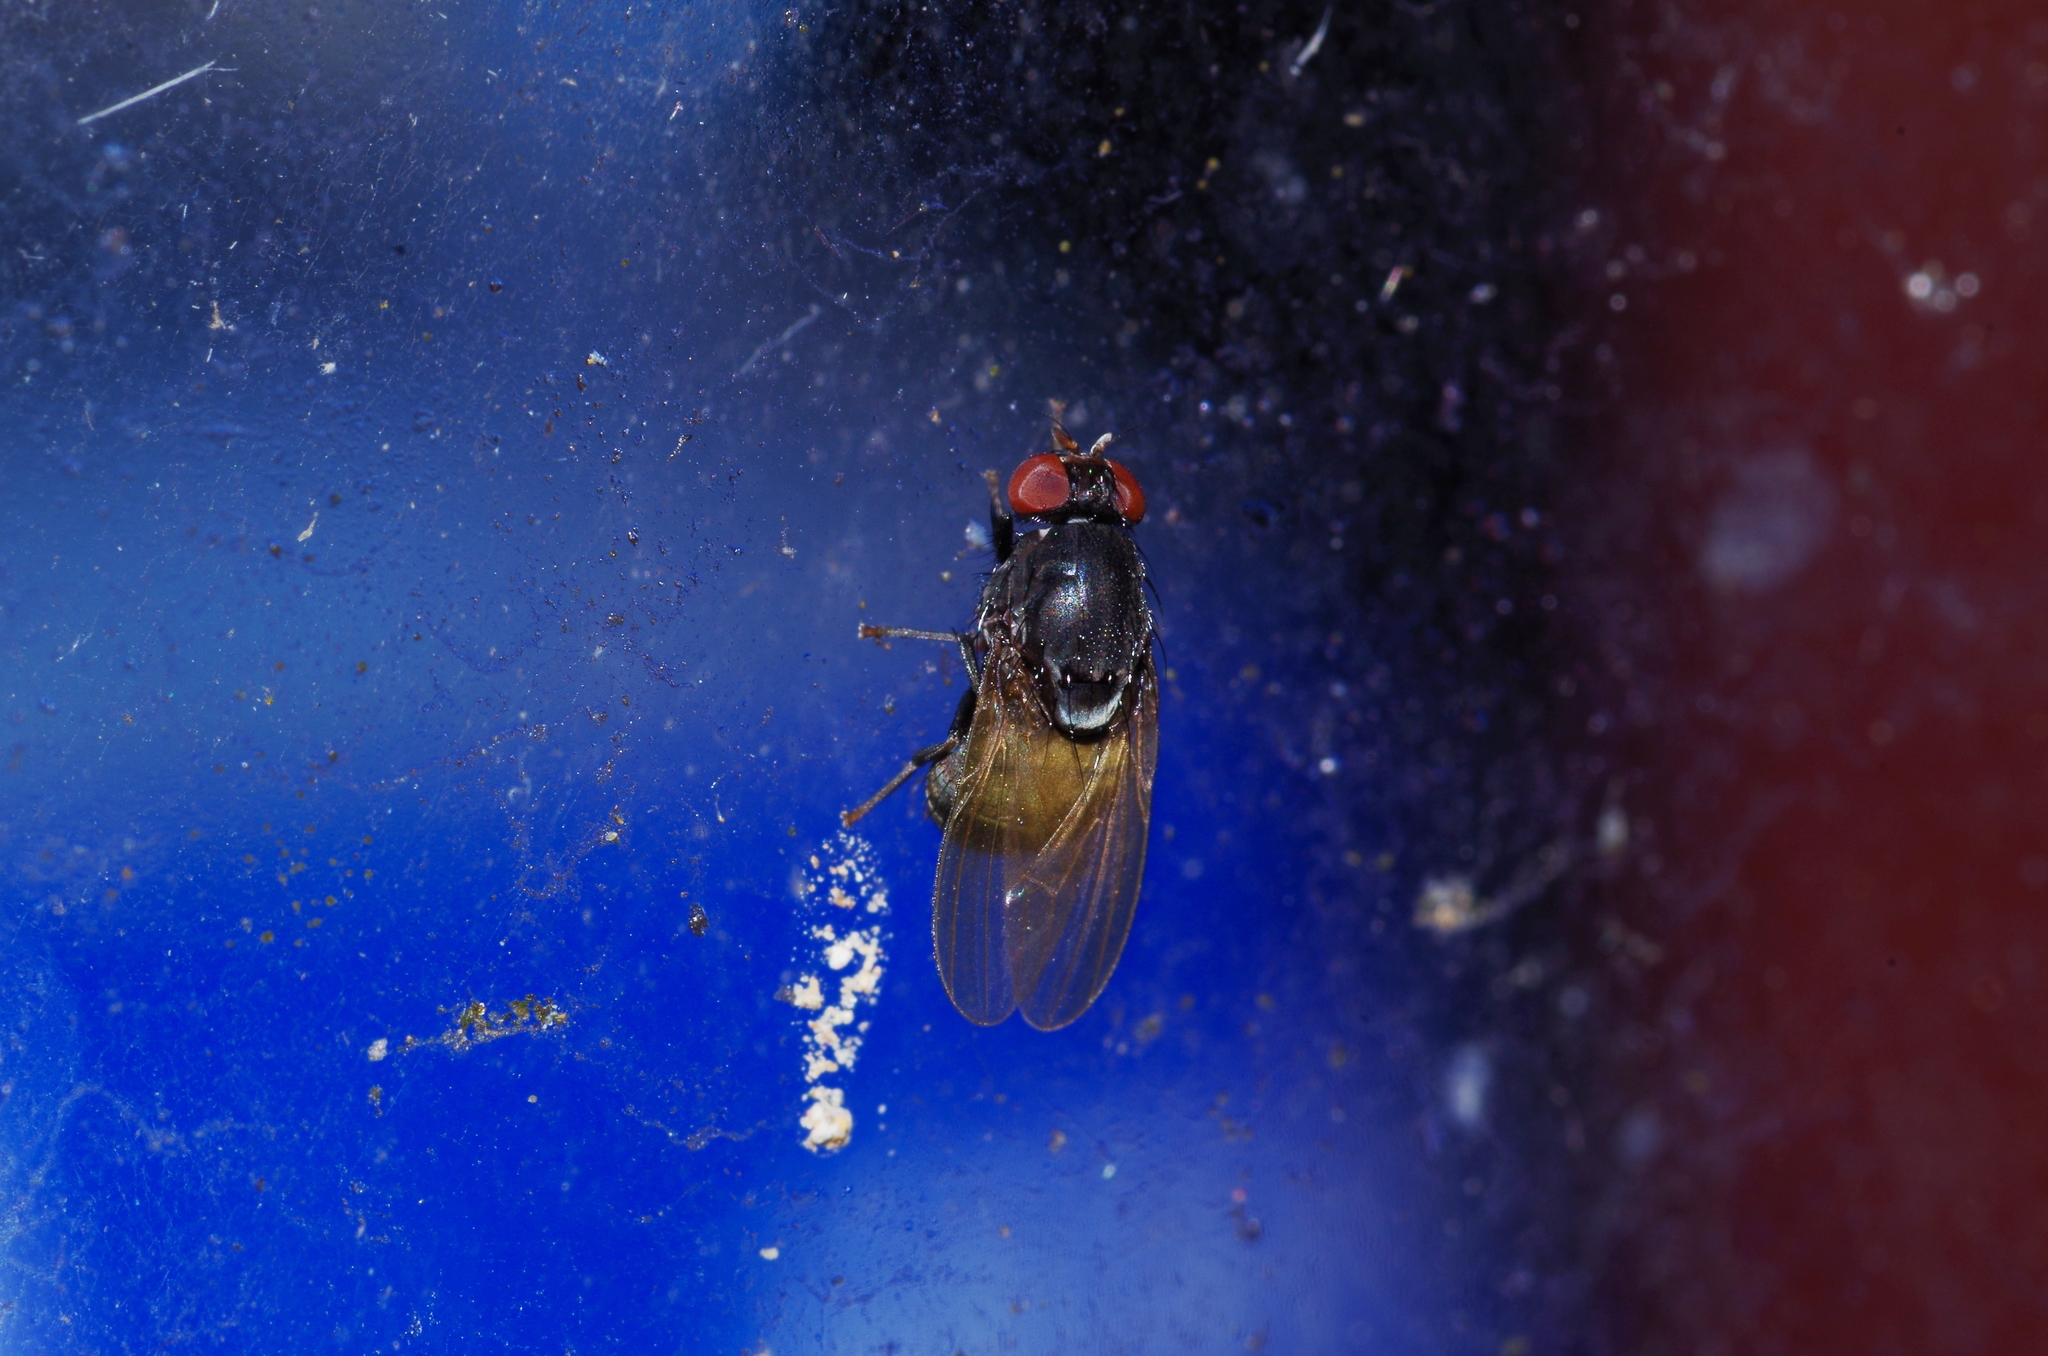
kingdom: Animalia
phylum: Arthropoda
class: Insecta
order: Diptera
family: Lauxaniidae
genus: Minettia
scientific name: Minettia longipennis
